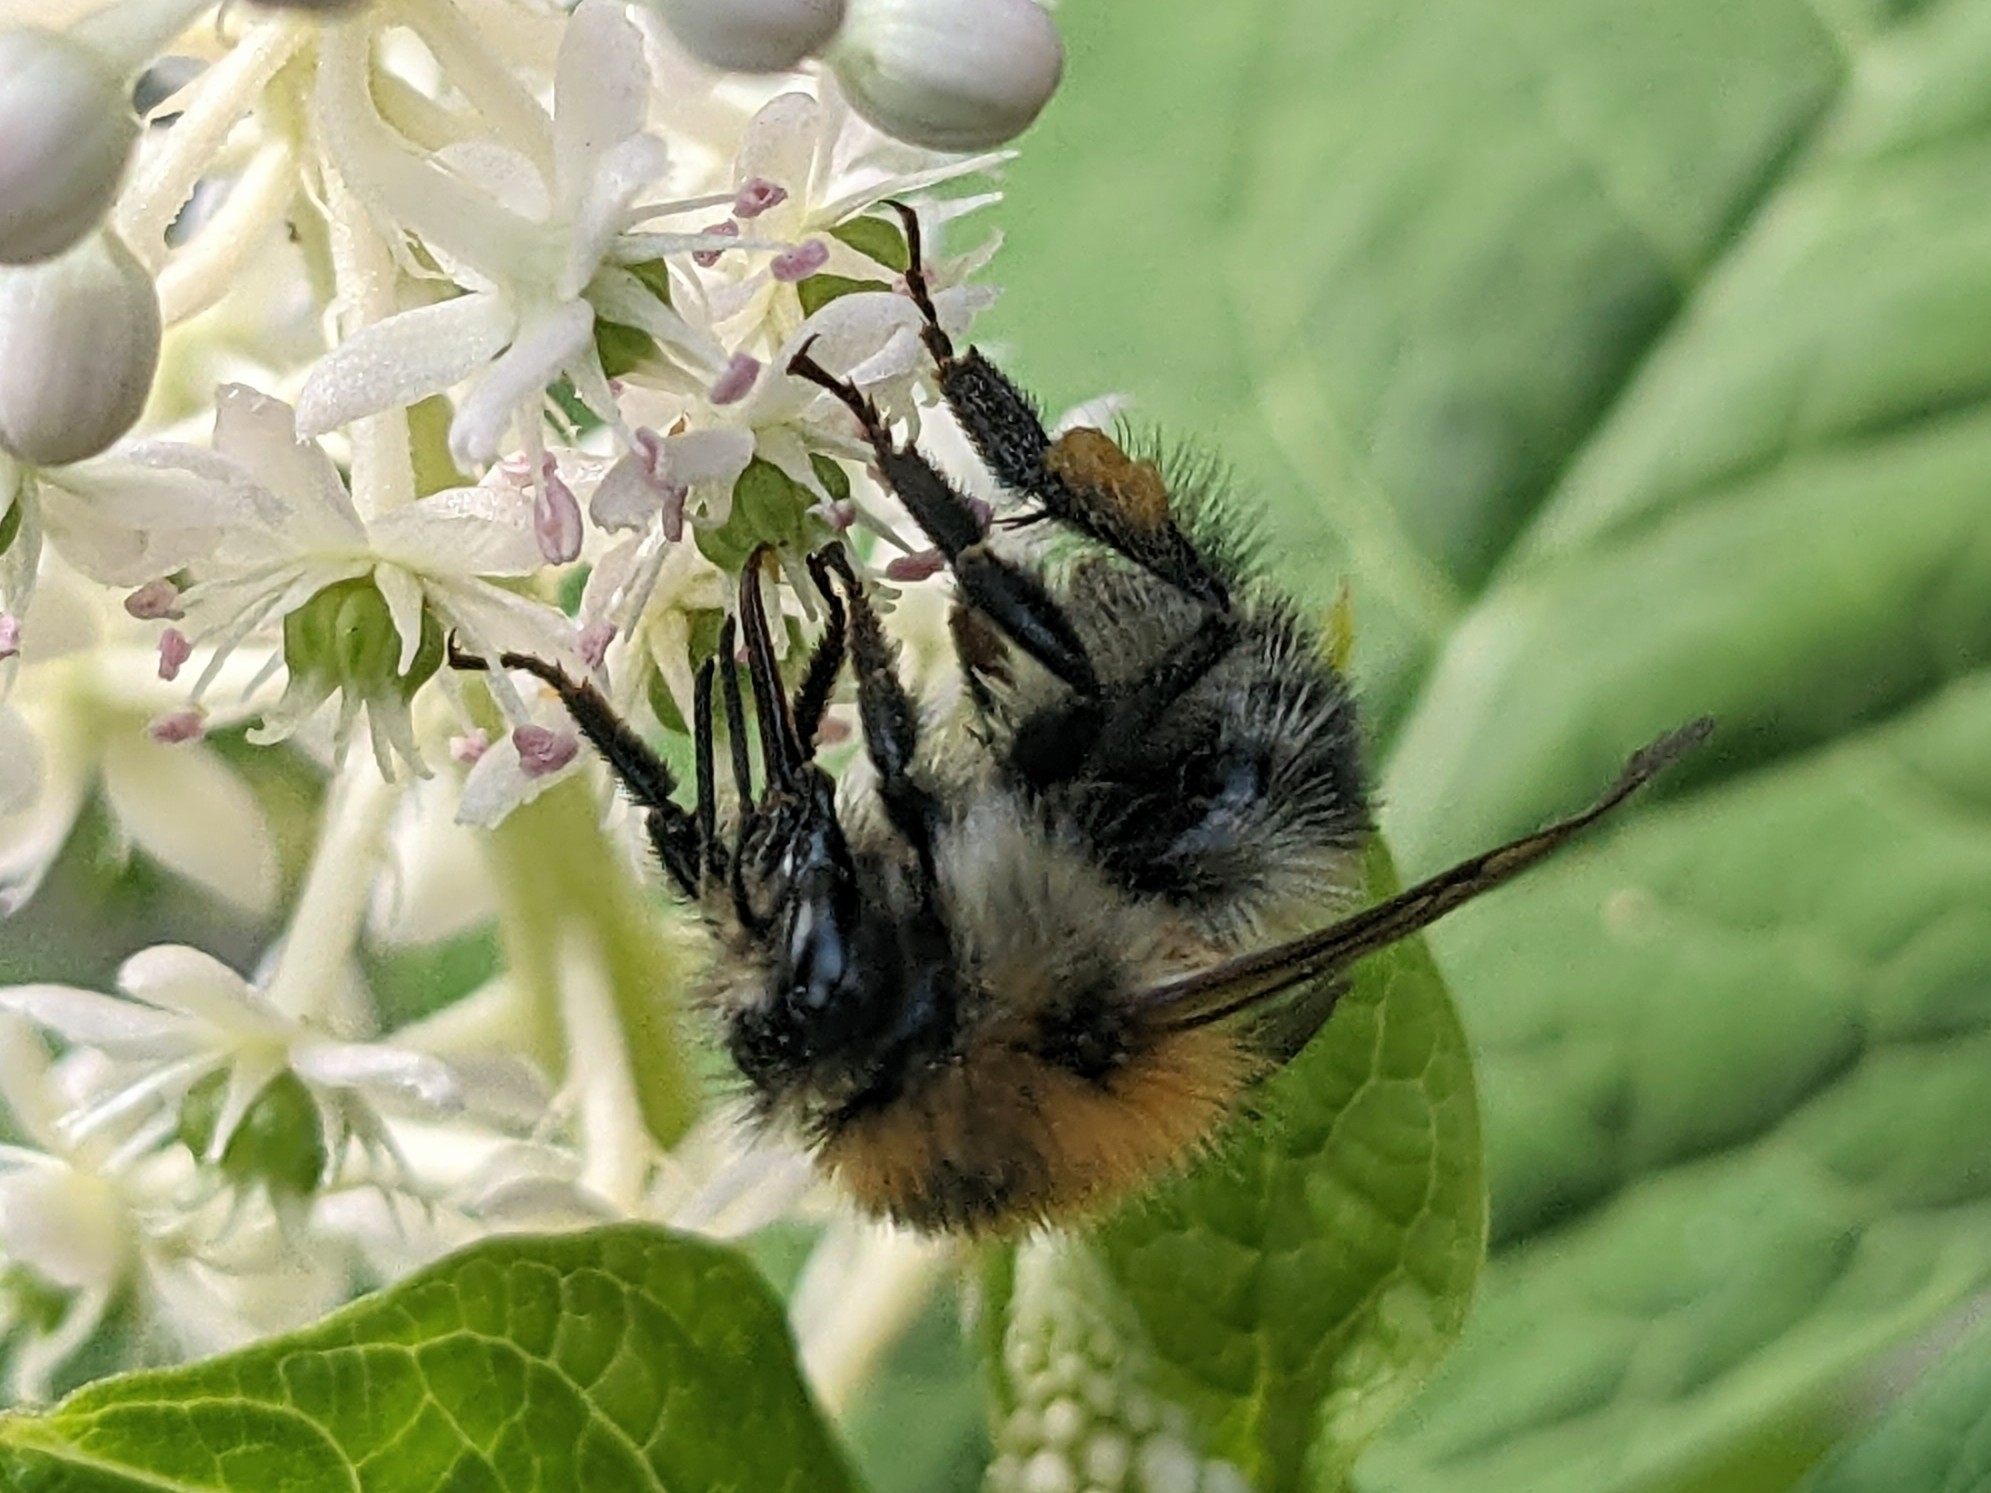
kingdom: Animalia
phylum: Arthropoda
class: Insecta
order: Hymenoptera
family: Apidae
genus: Bombus
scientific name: Bombus pascuorum
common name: Common carder bee
